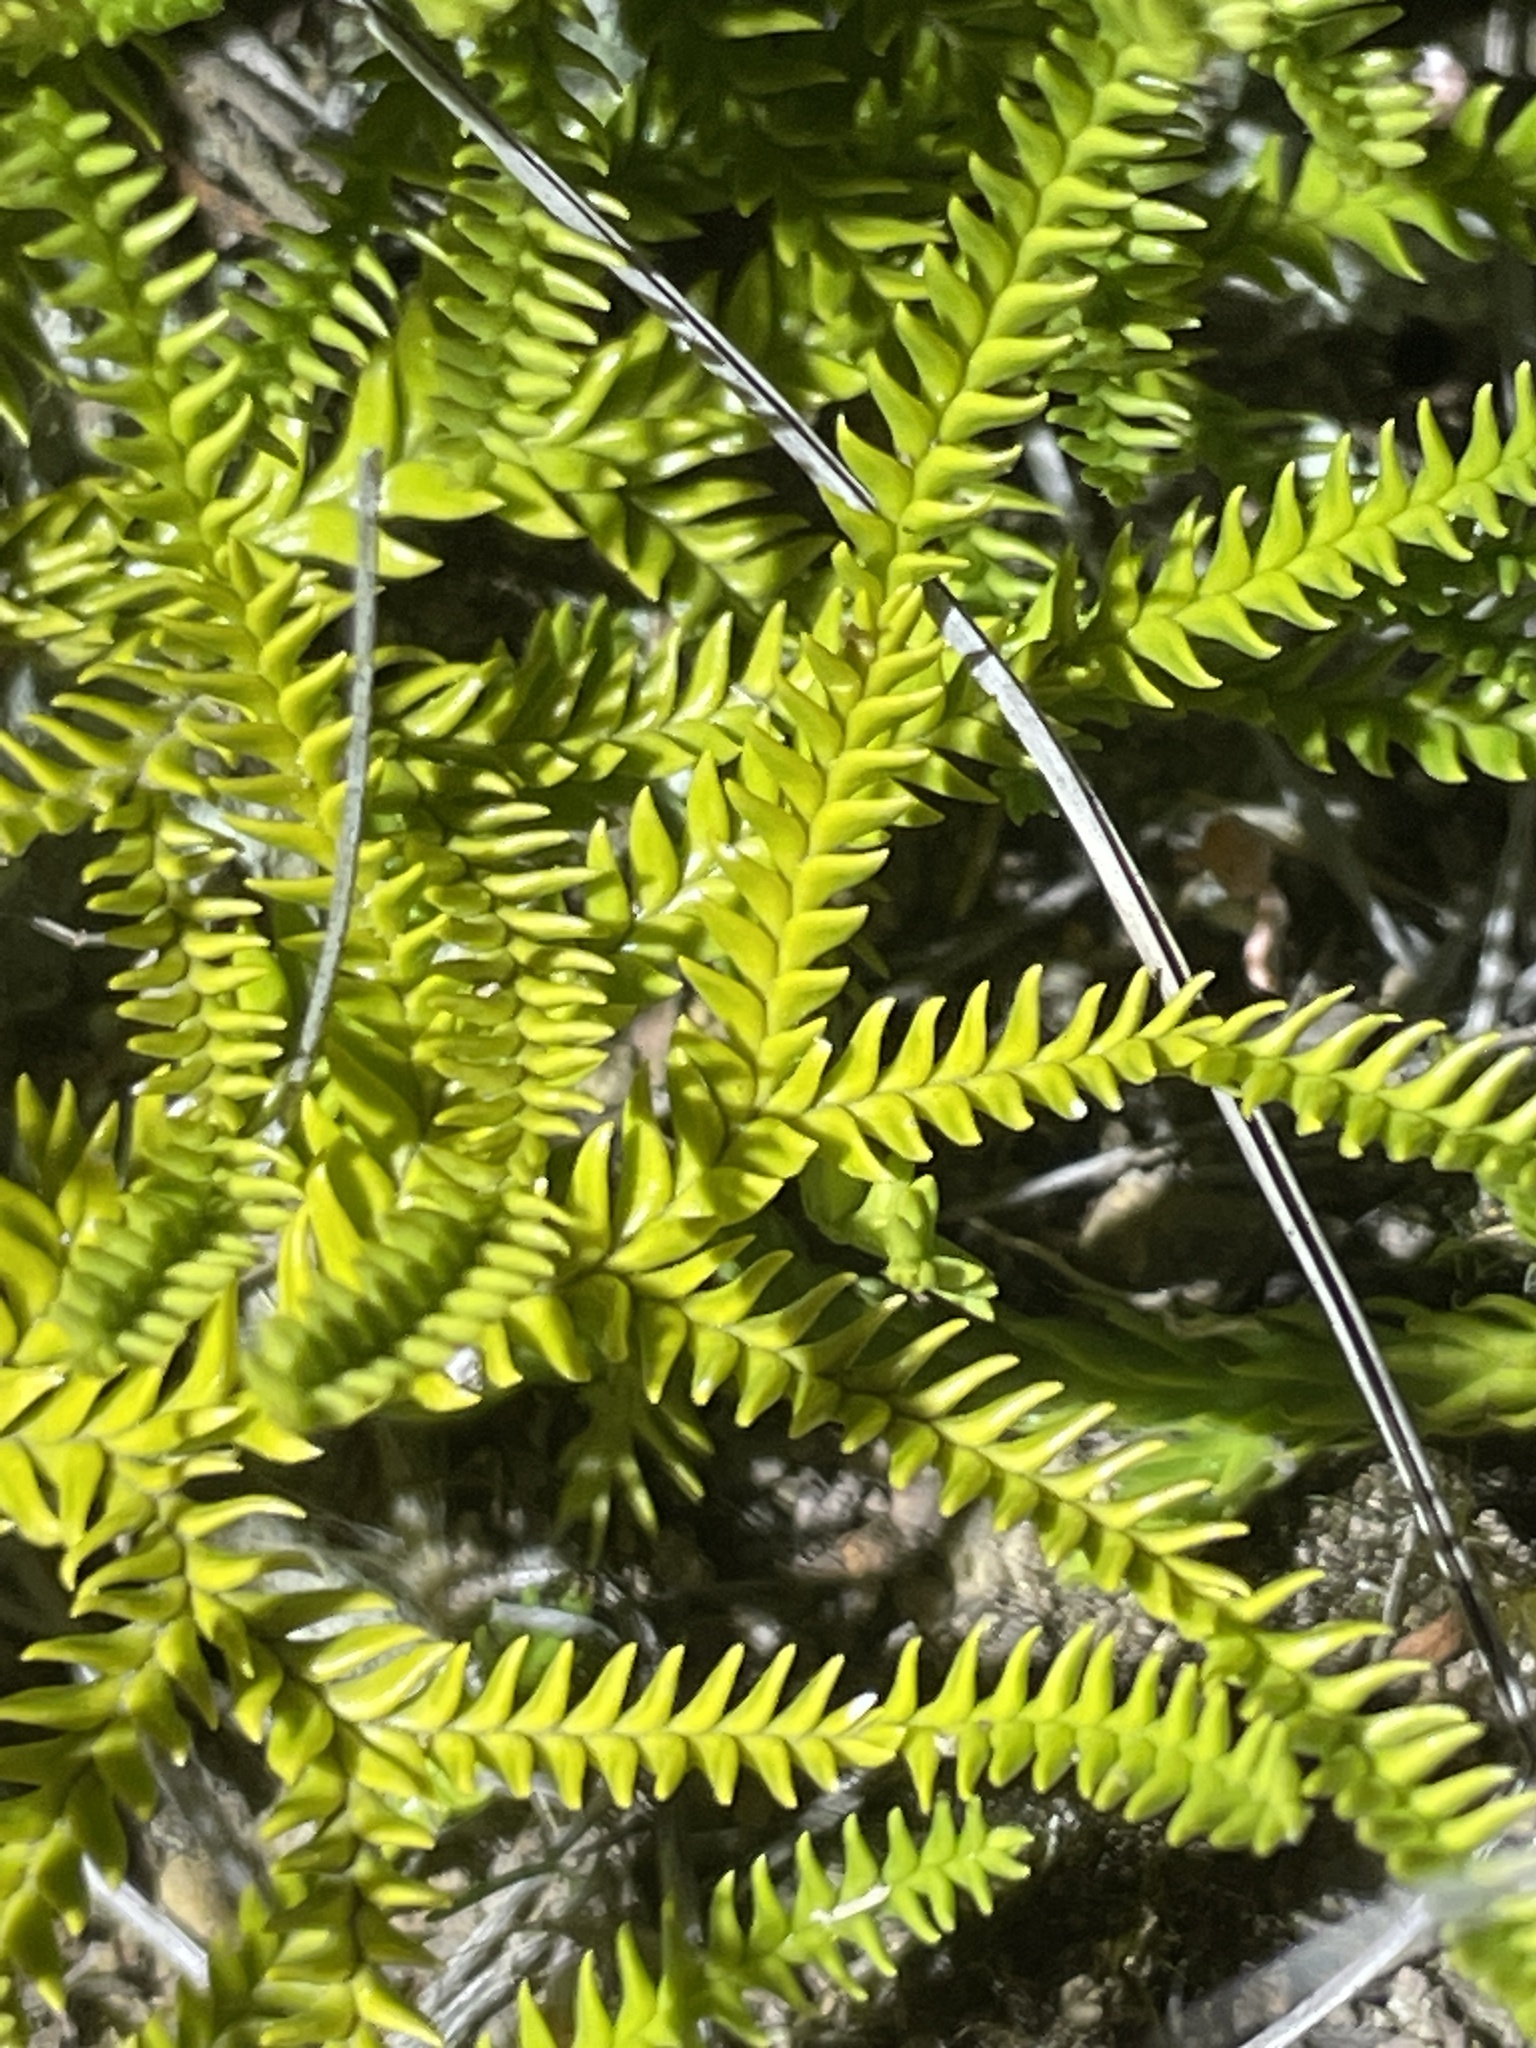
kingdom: Plantae
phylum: Tracheophyta
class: Lycopodiopsida
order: Lycopodiales
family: Lycopodiaceae
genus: Diphasium
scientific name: Diphasium scariosum
